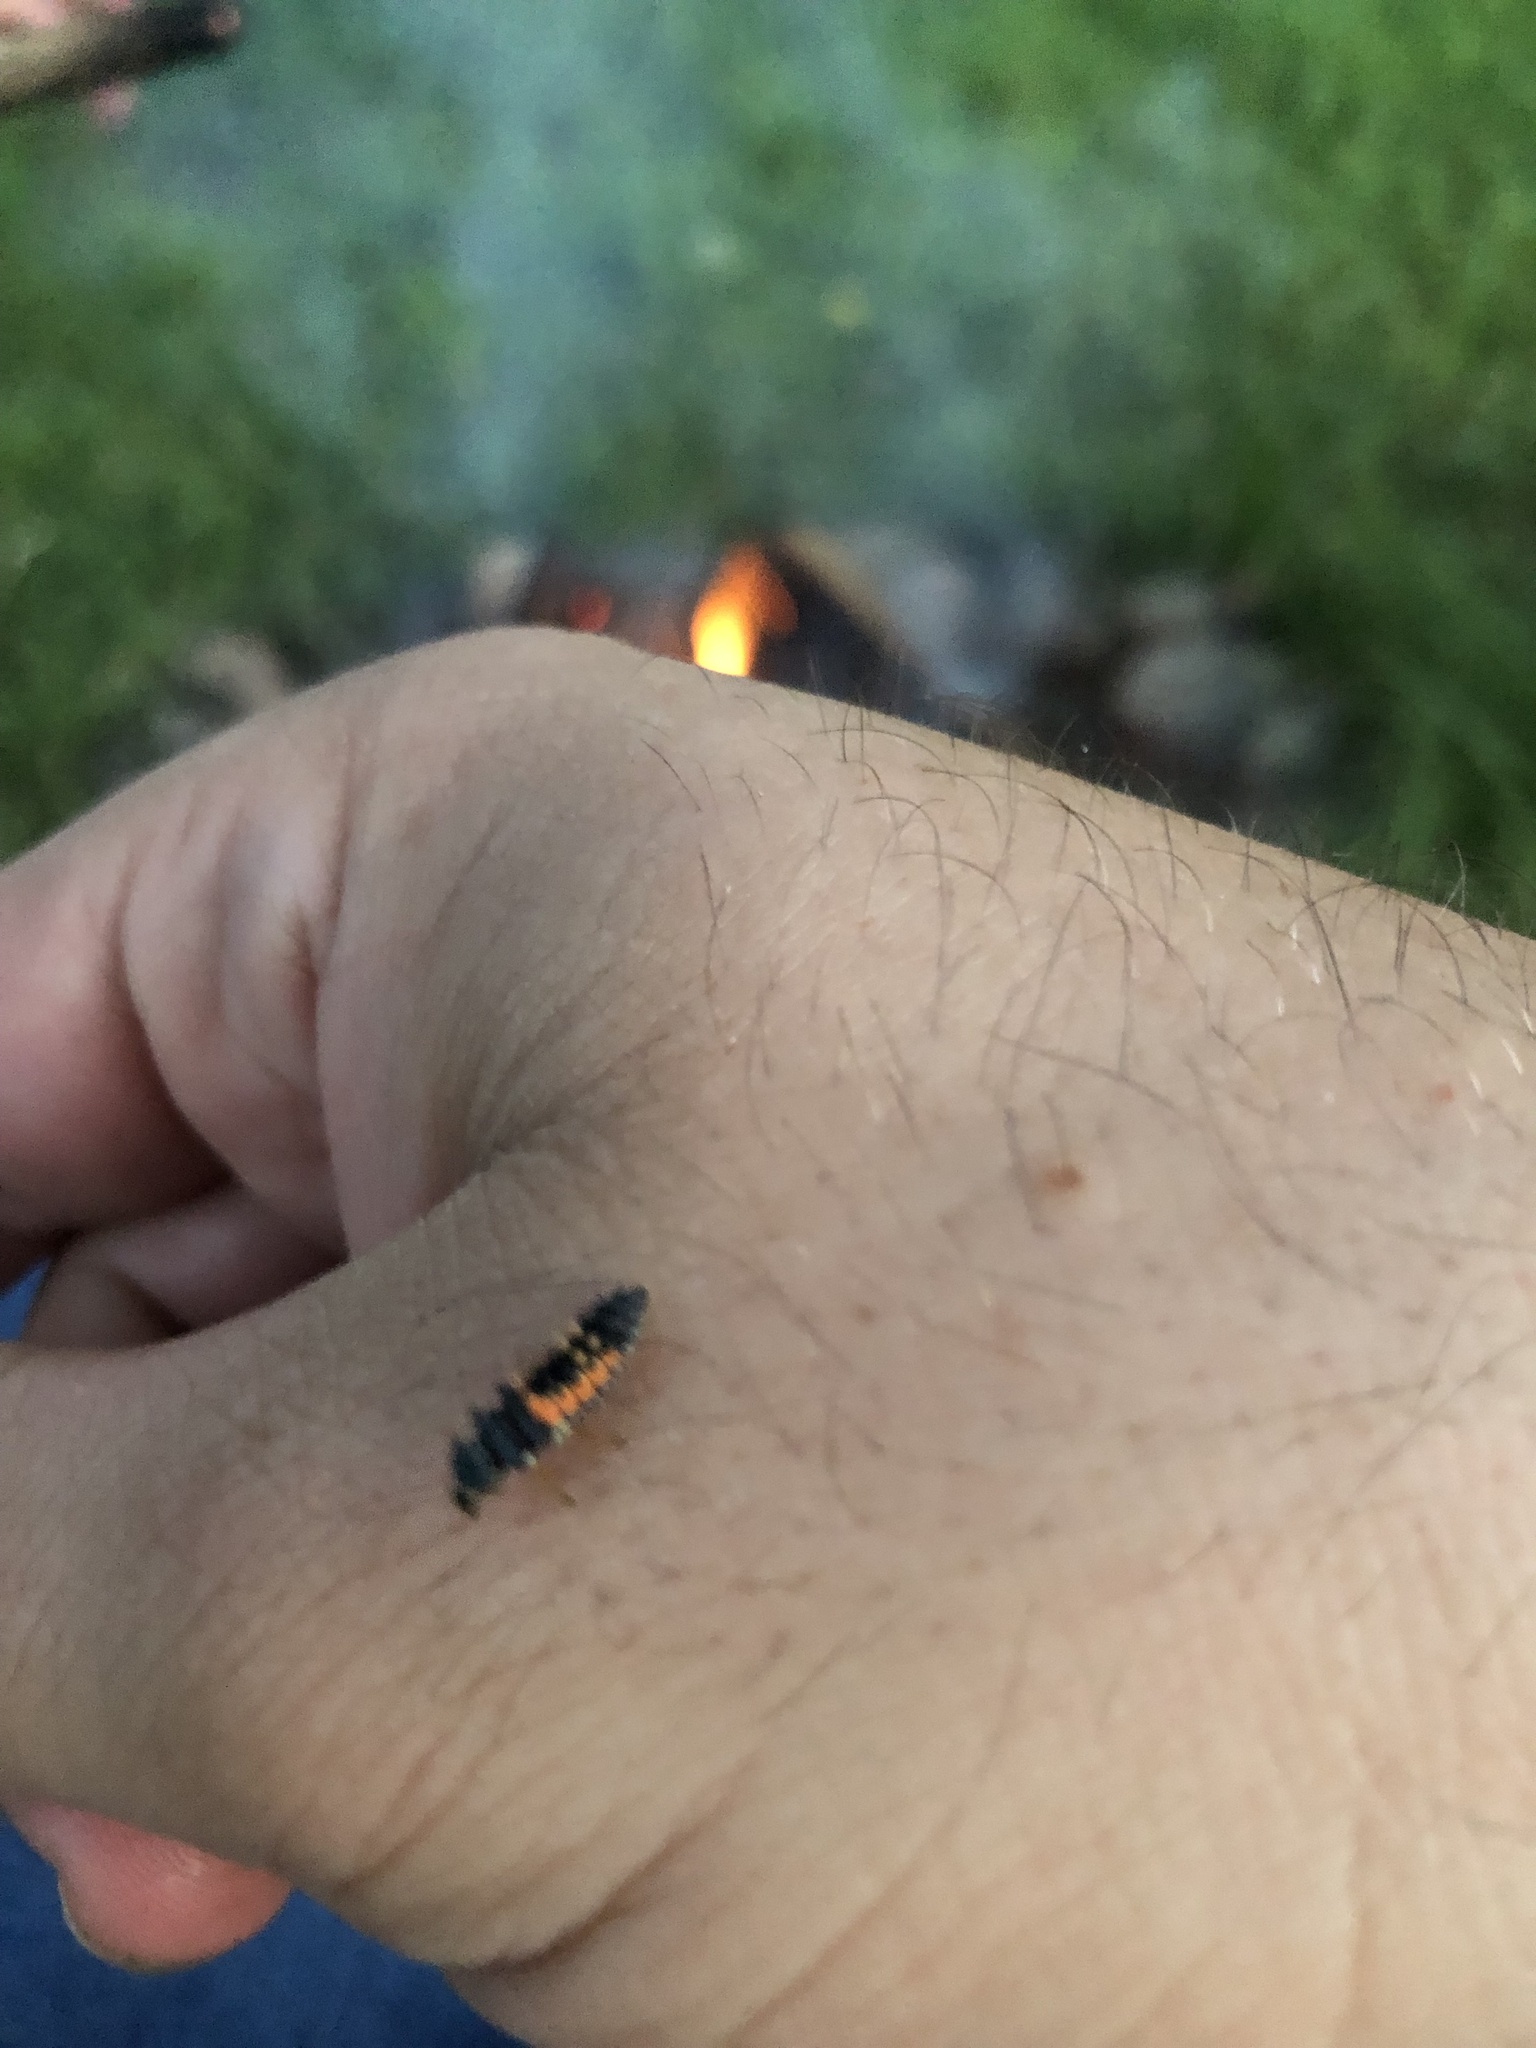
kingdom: Animalia
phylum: Arthropoda
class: Insecta
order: Coleoptera
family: Coccinellidae
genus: Harmonia
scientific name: Harmonia axyridis
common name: Harlequin ladybird
